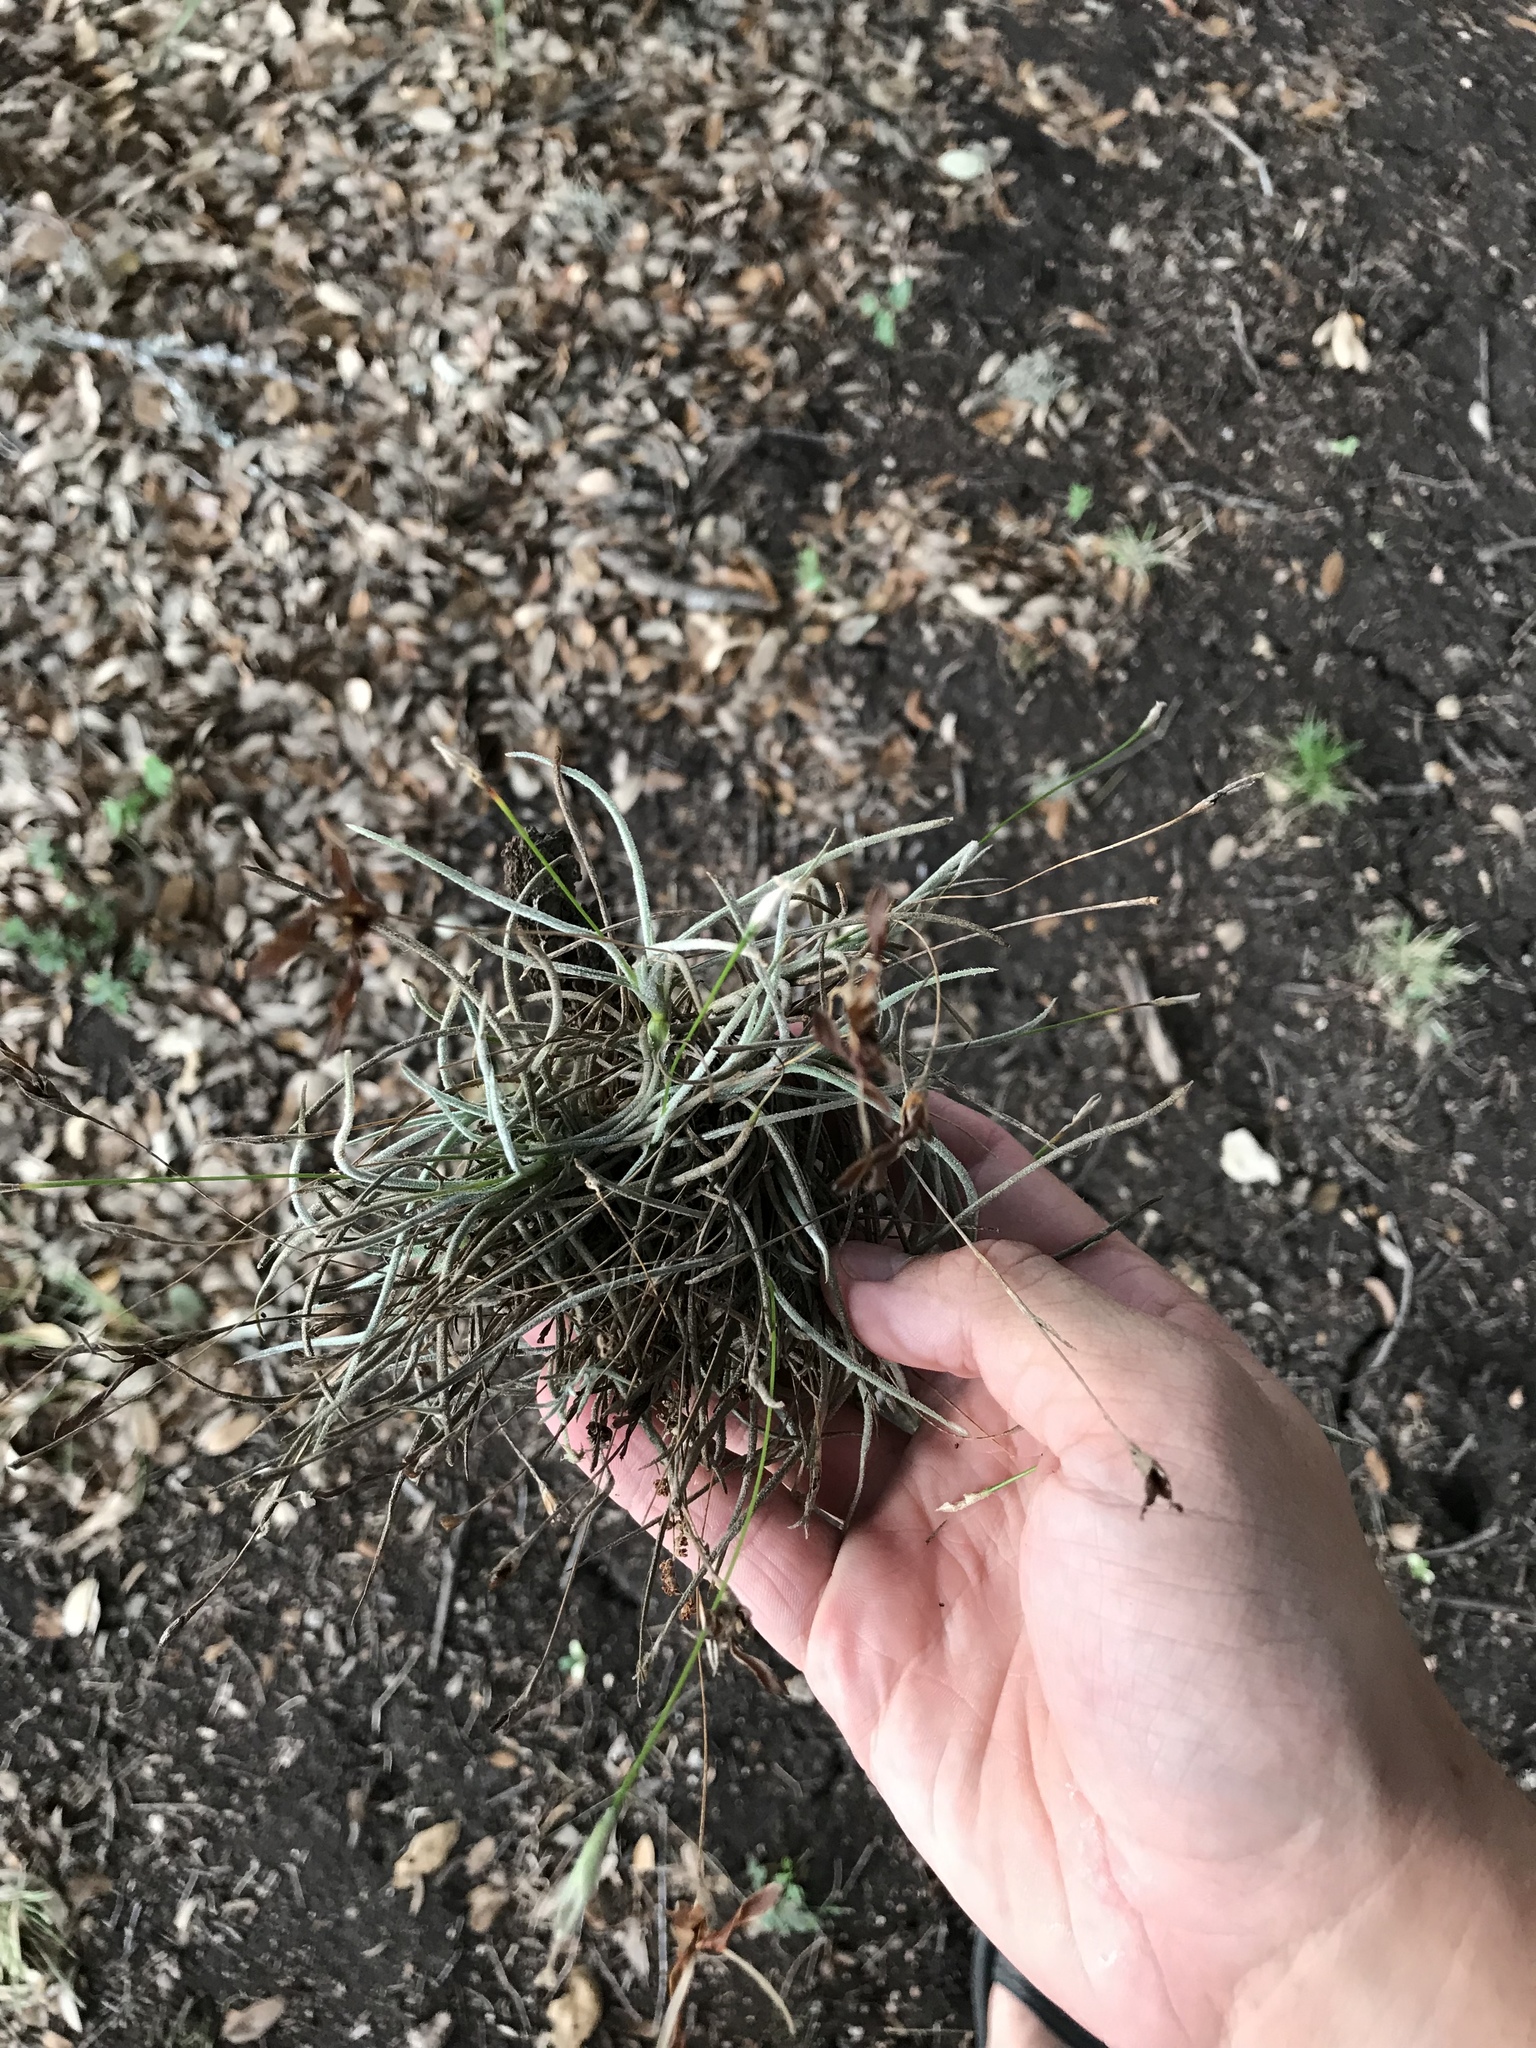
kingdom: Plantae
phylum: Tracheophyta
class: Liliopsida
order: Poales
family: Bromeliaceae
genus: Tillandsia
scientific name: Tillandsia recurvata
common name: Small ballmoss
